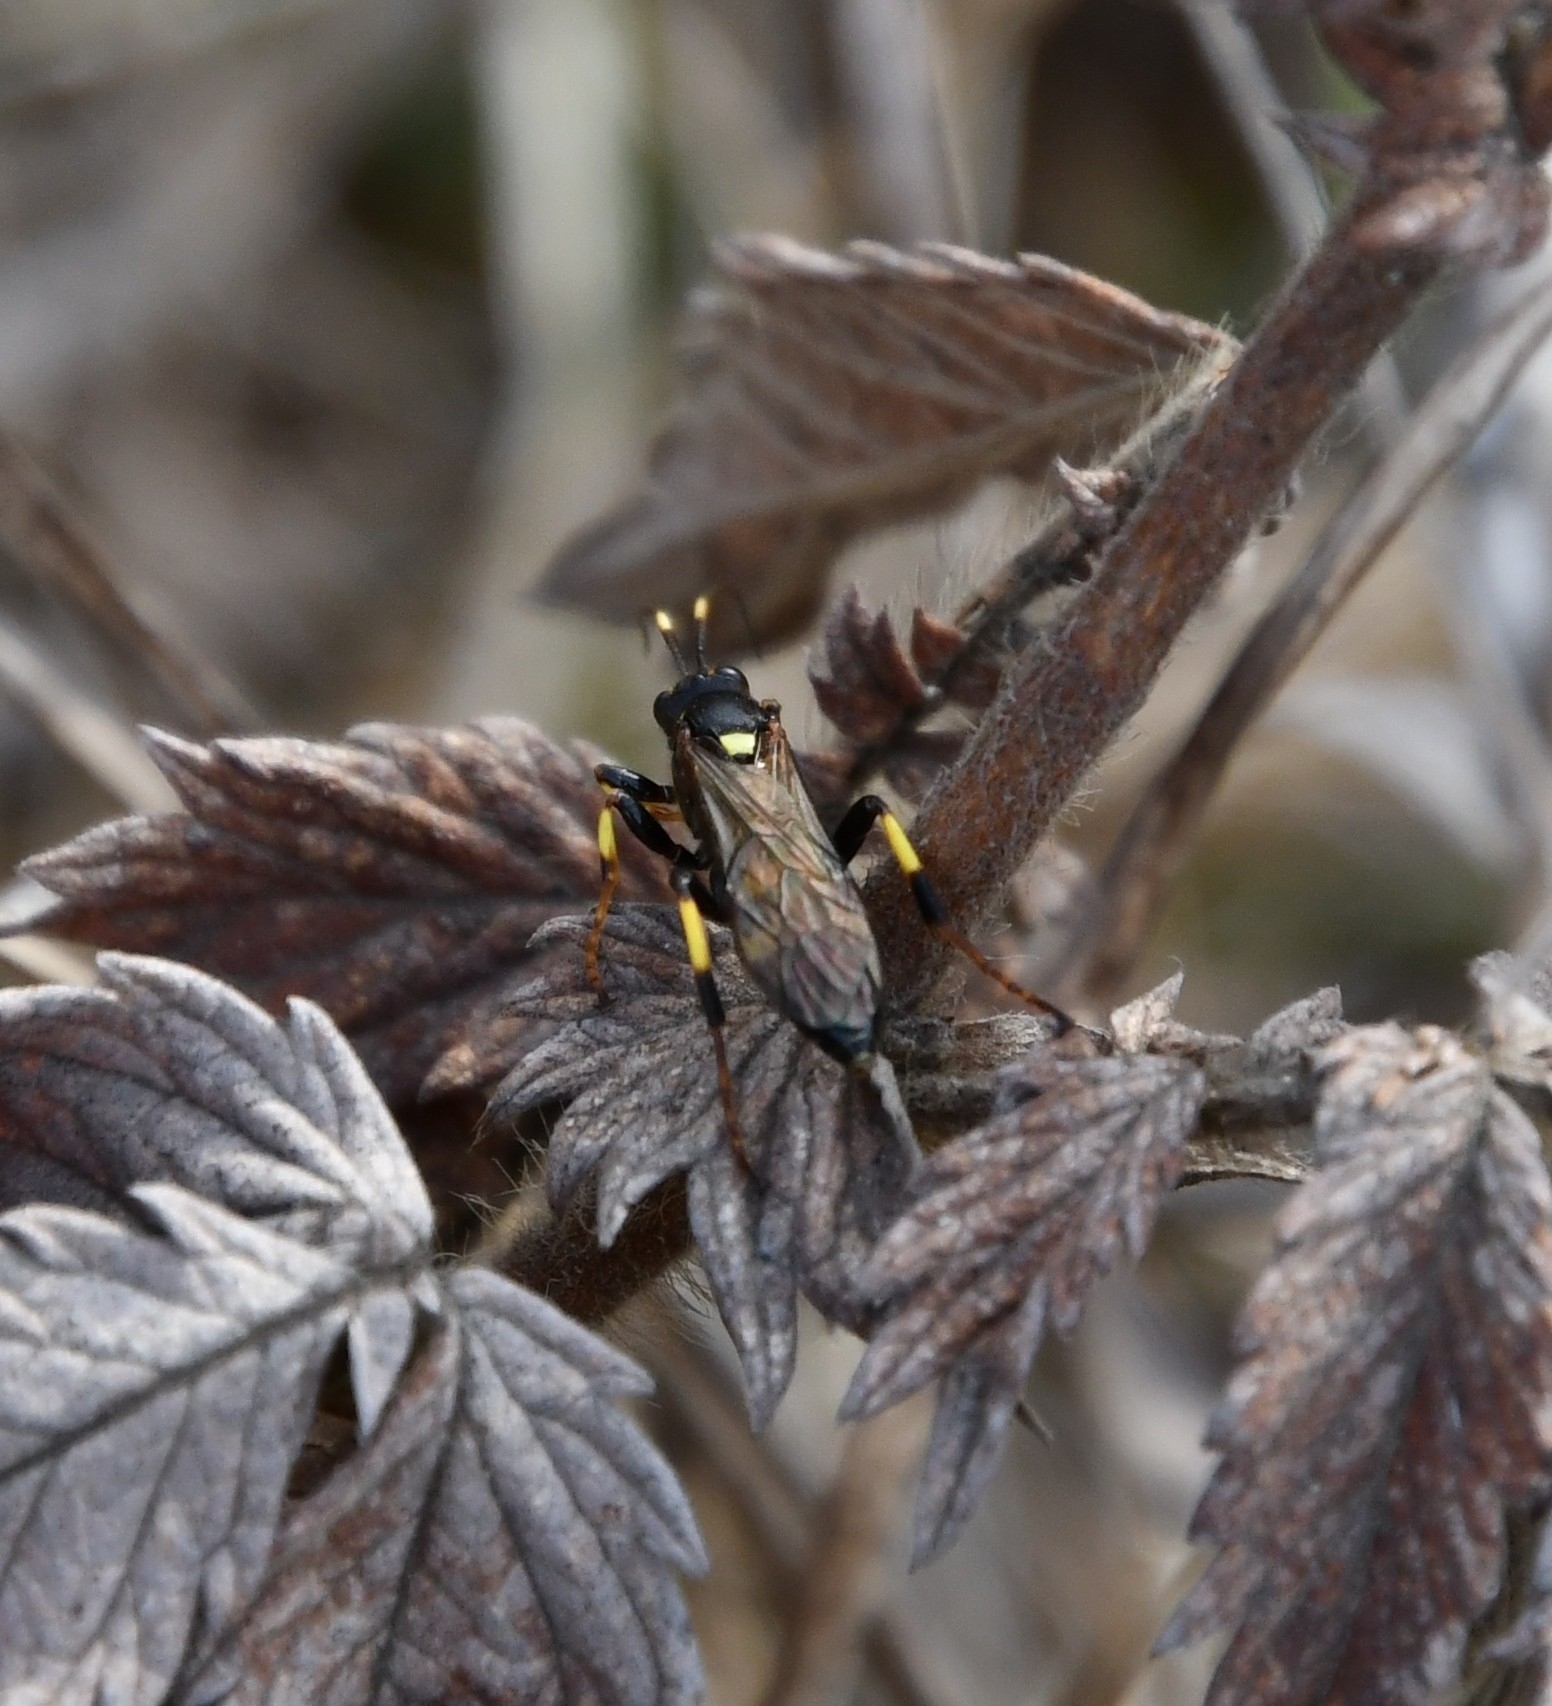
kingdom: Animalia
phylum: Arthropoda
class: Insecta
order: Hymenoptera
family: Ichneumonidae
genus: Diphyus
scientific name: Diphyus palliatorius
